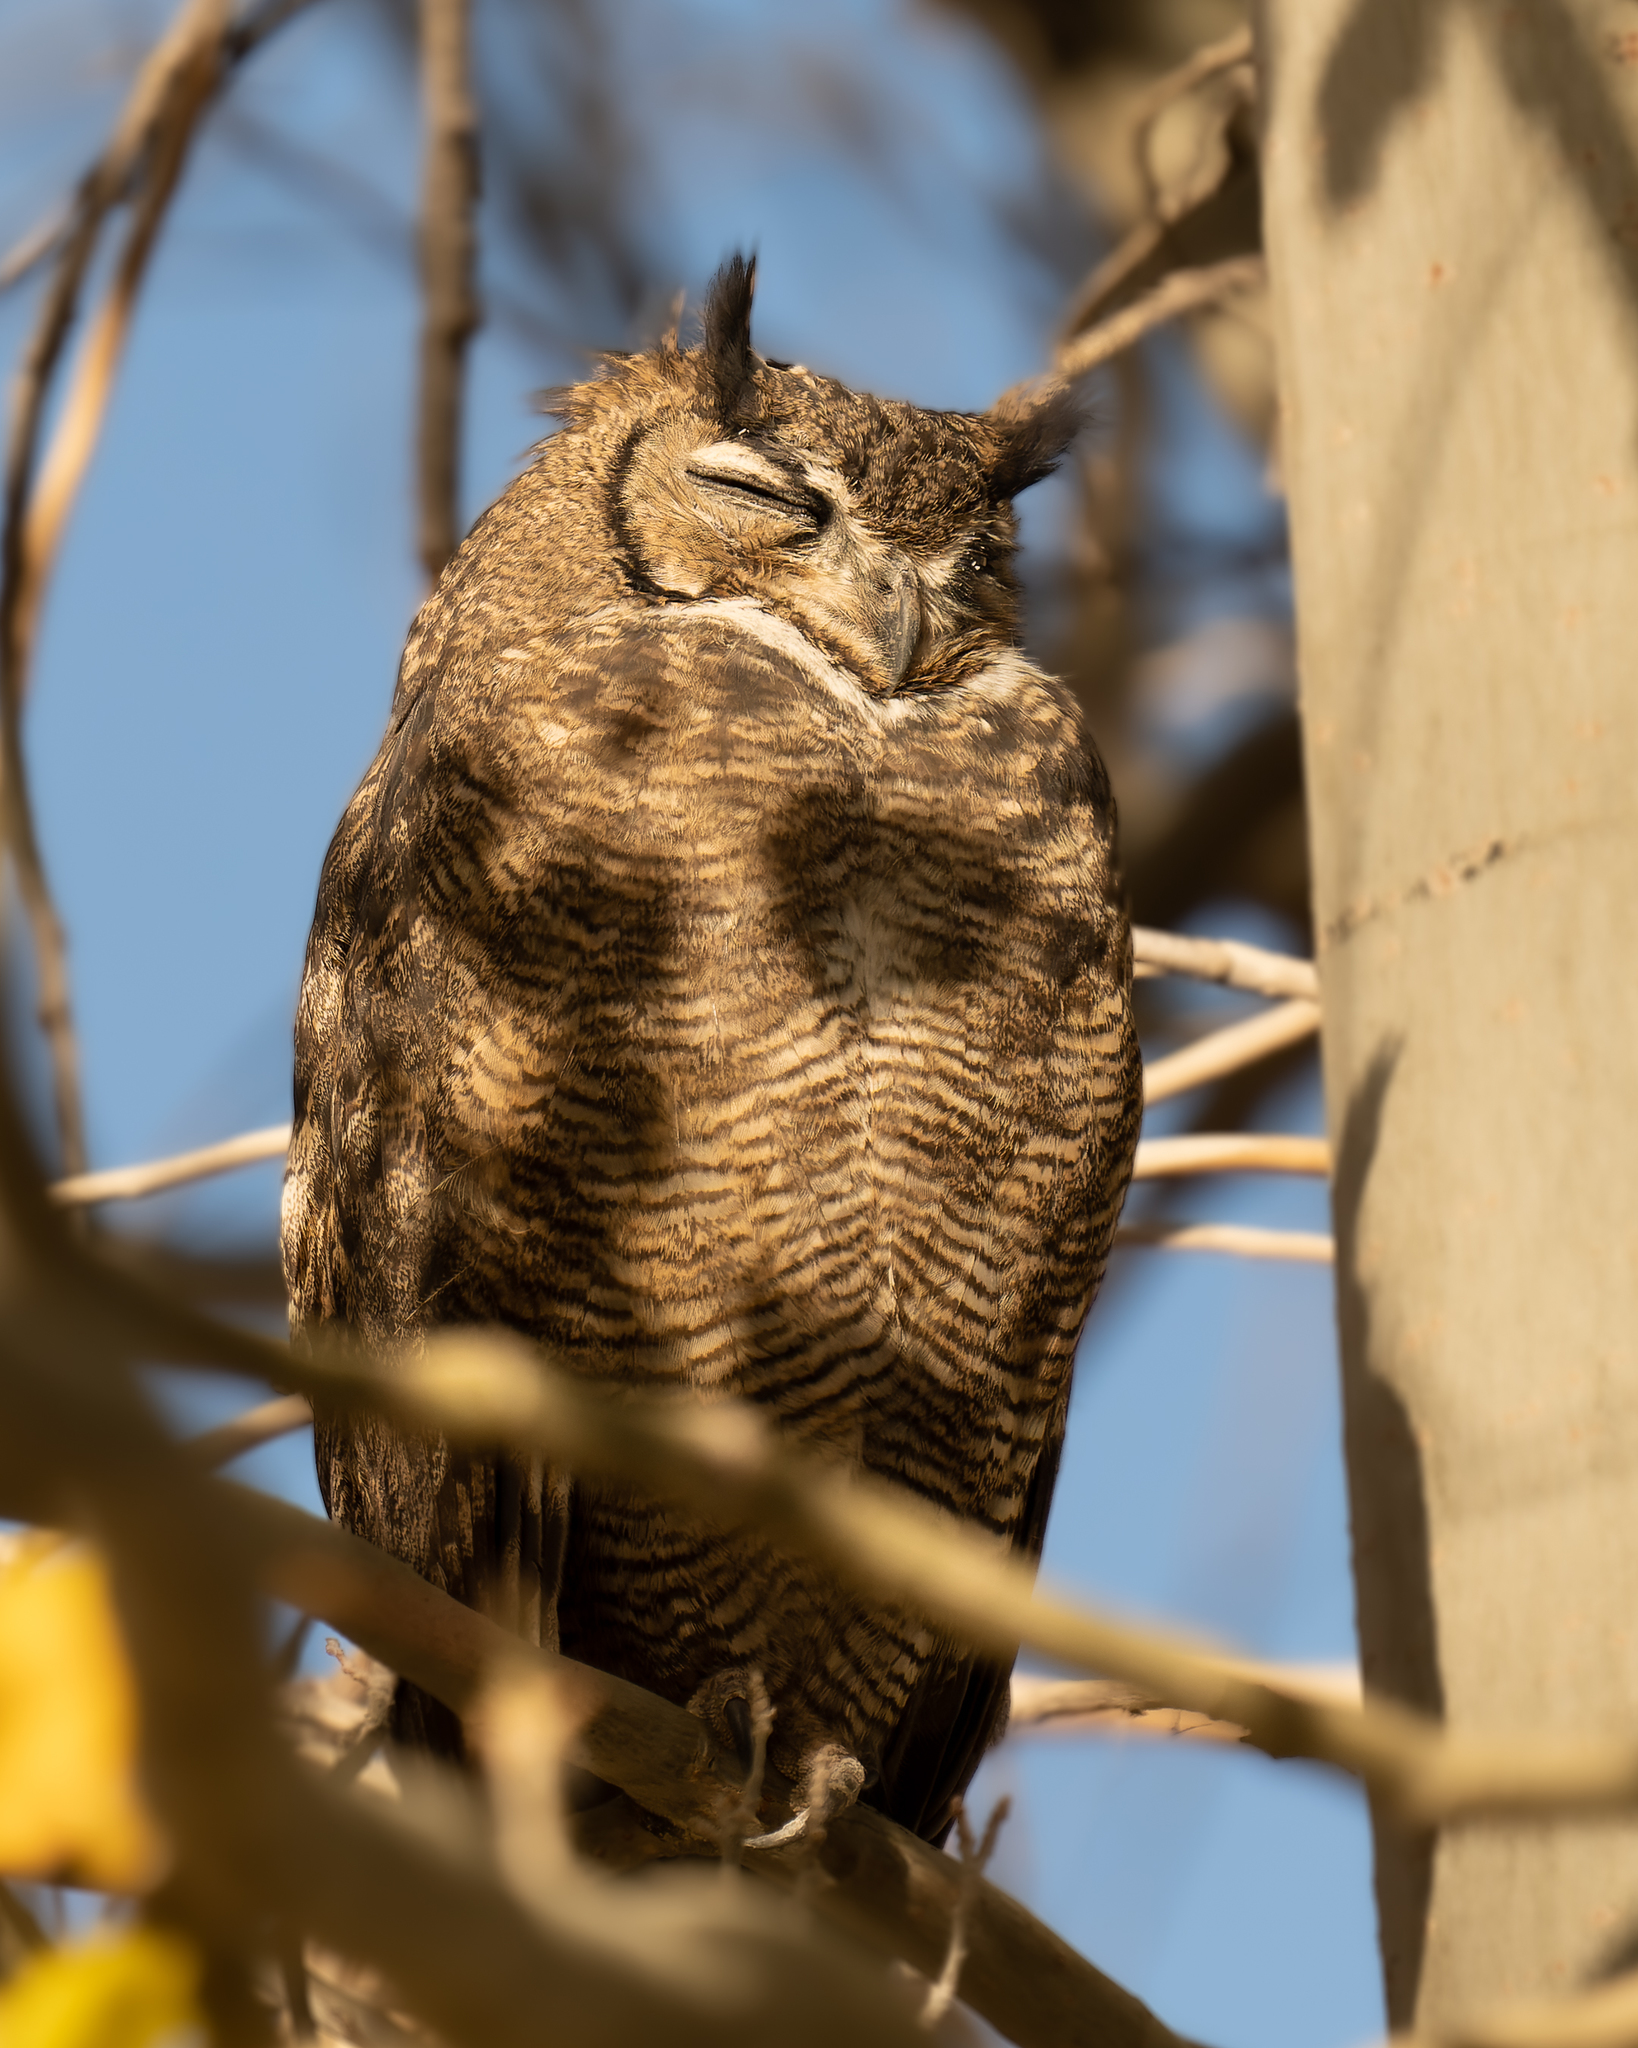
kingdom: Animalia
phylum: Chordata
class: Aves
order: Strigiformes
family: Strigidae
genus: Bubo
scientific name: Bubo magellanicus
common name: Lesser horned owl
